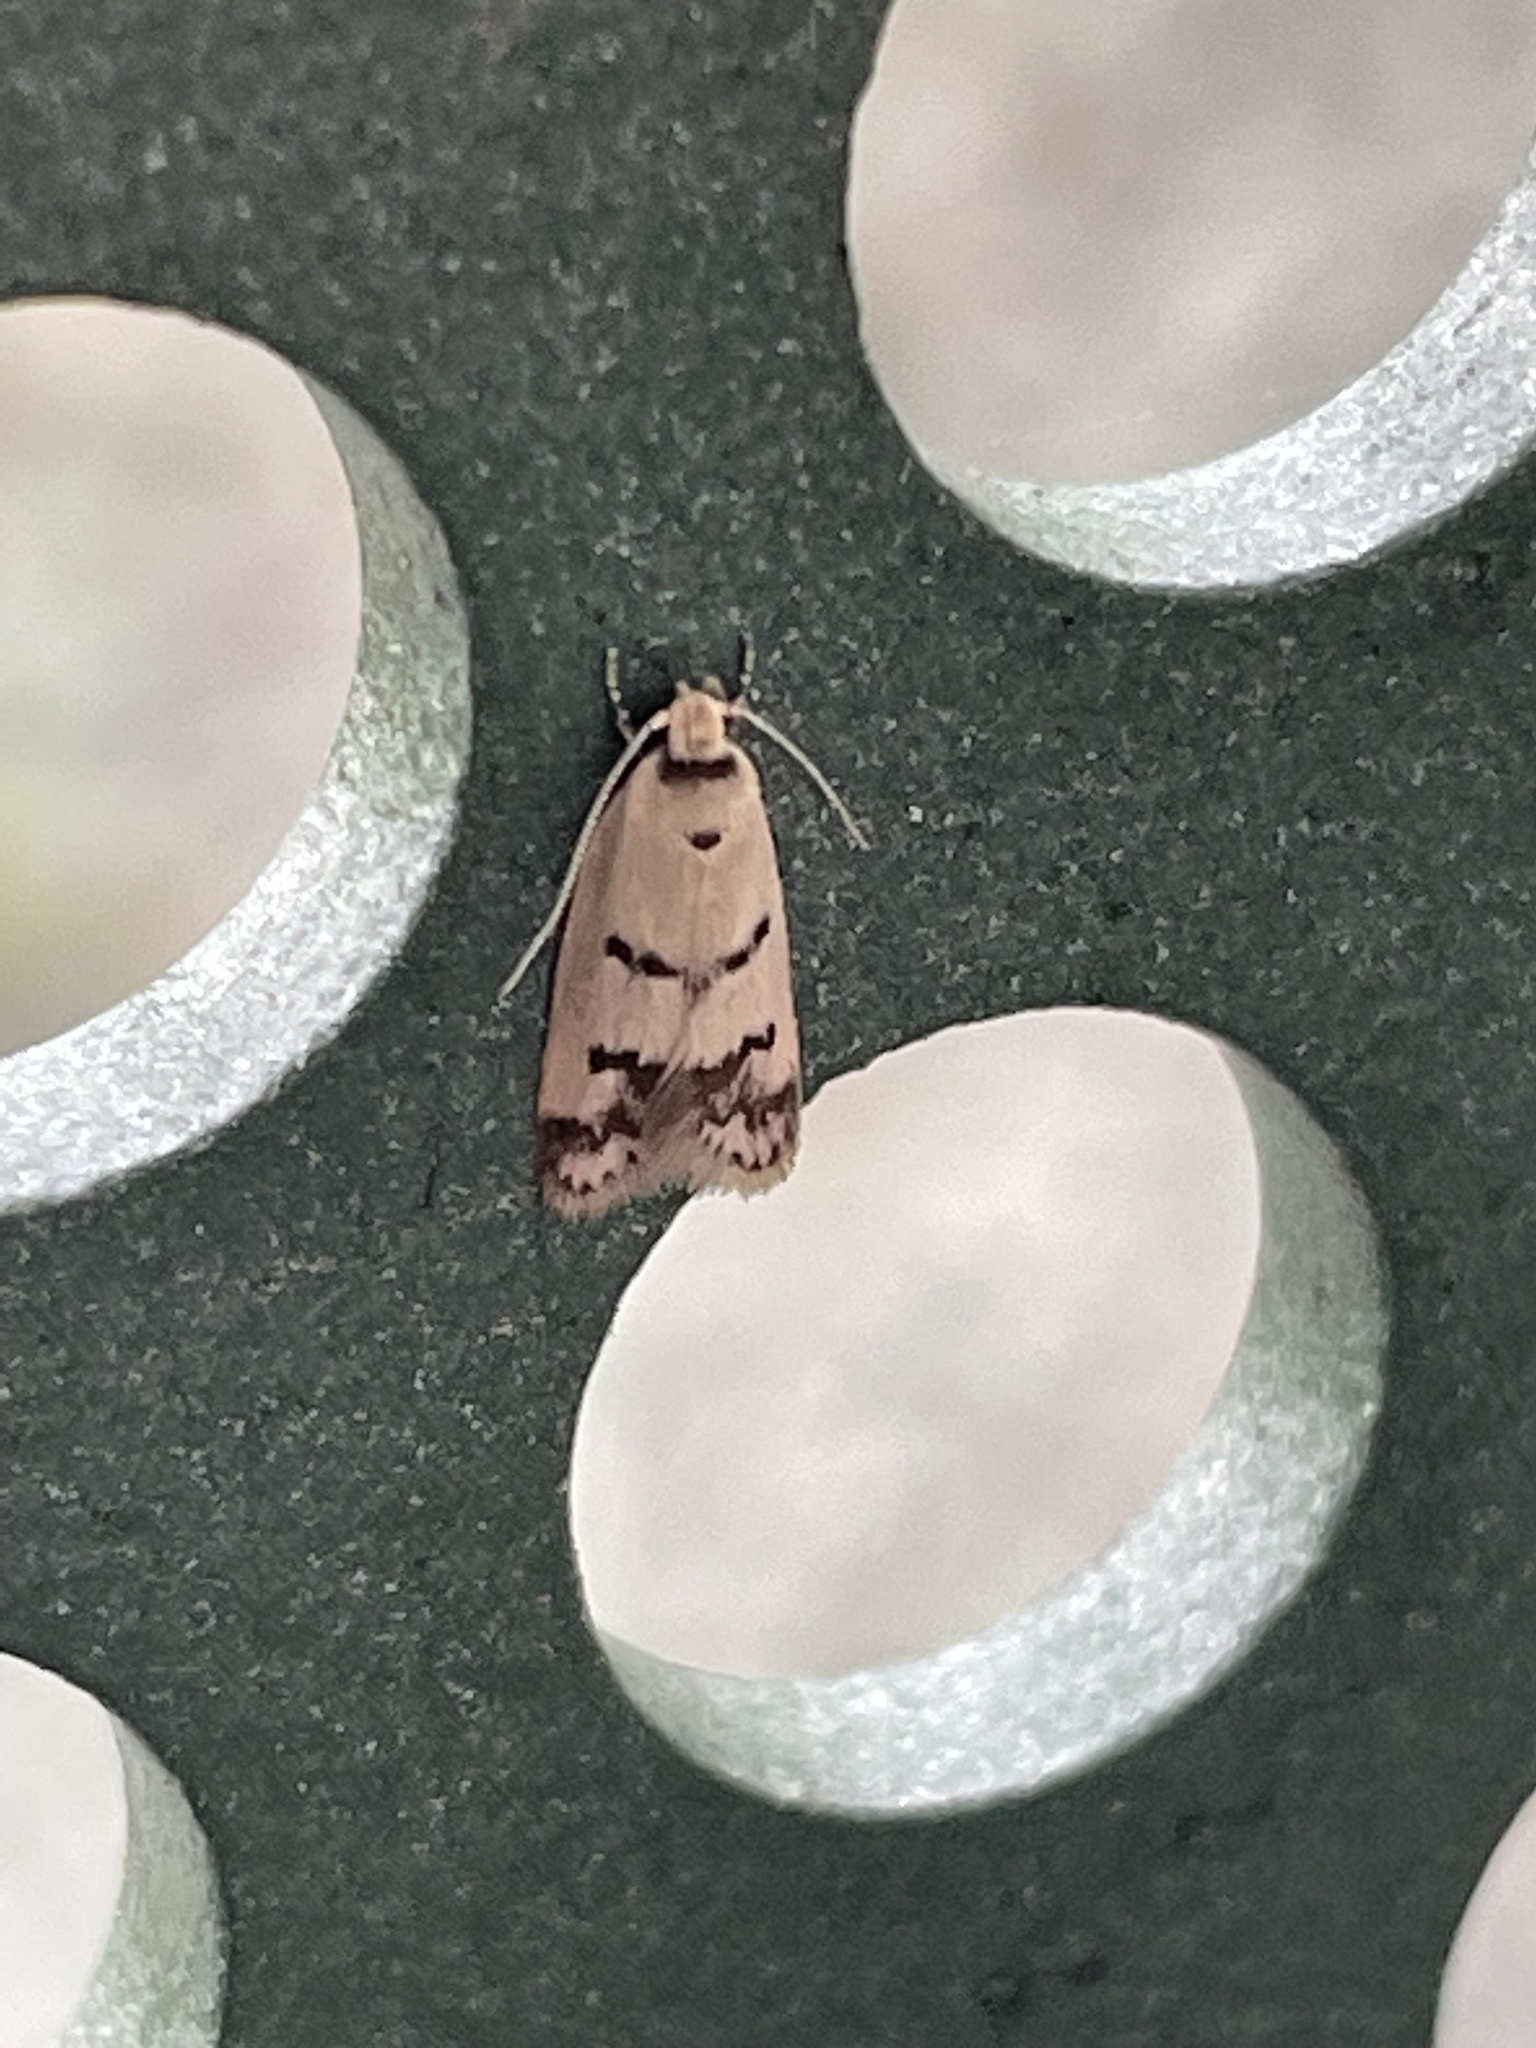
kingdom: Animalia
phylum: Arthropoda
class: Insecta
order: Lepidoptera
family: Oecophoridae
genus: Compsotropha
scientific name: Compsotropha strophiella
